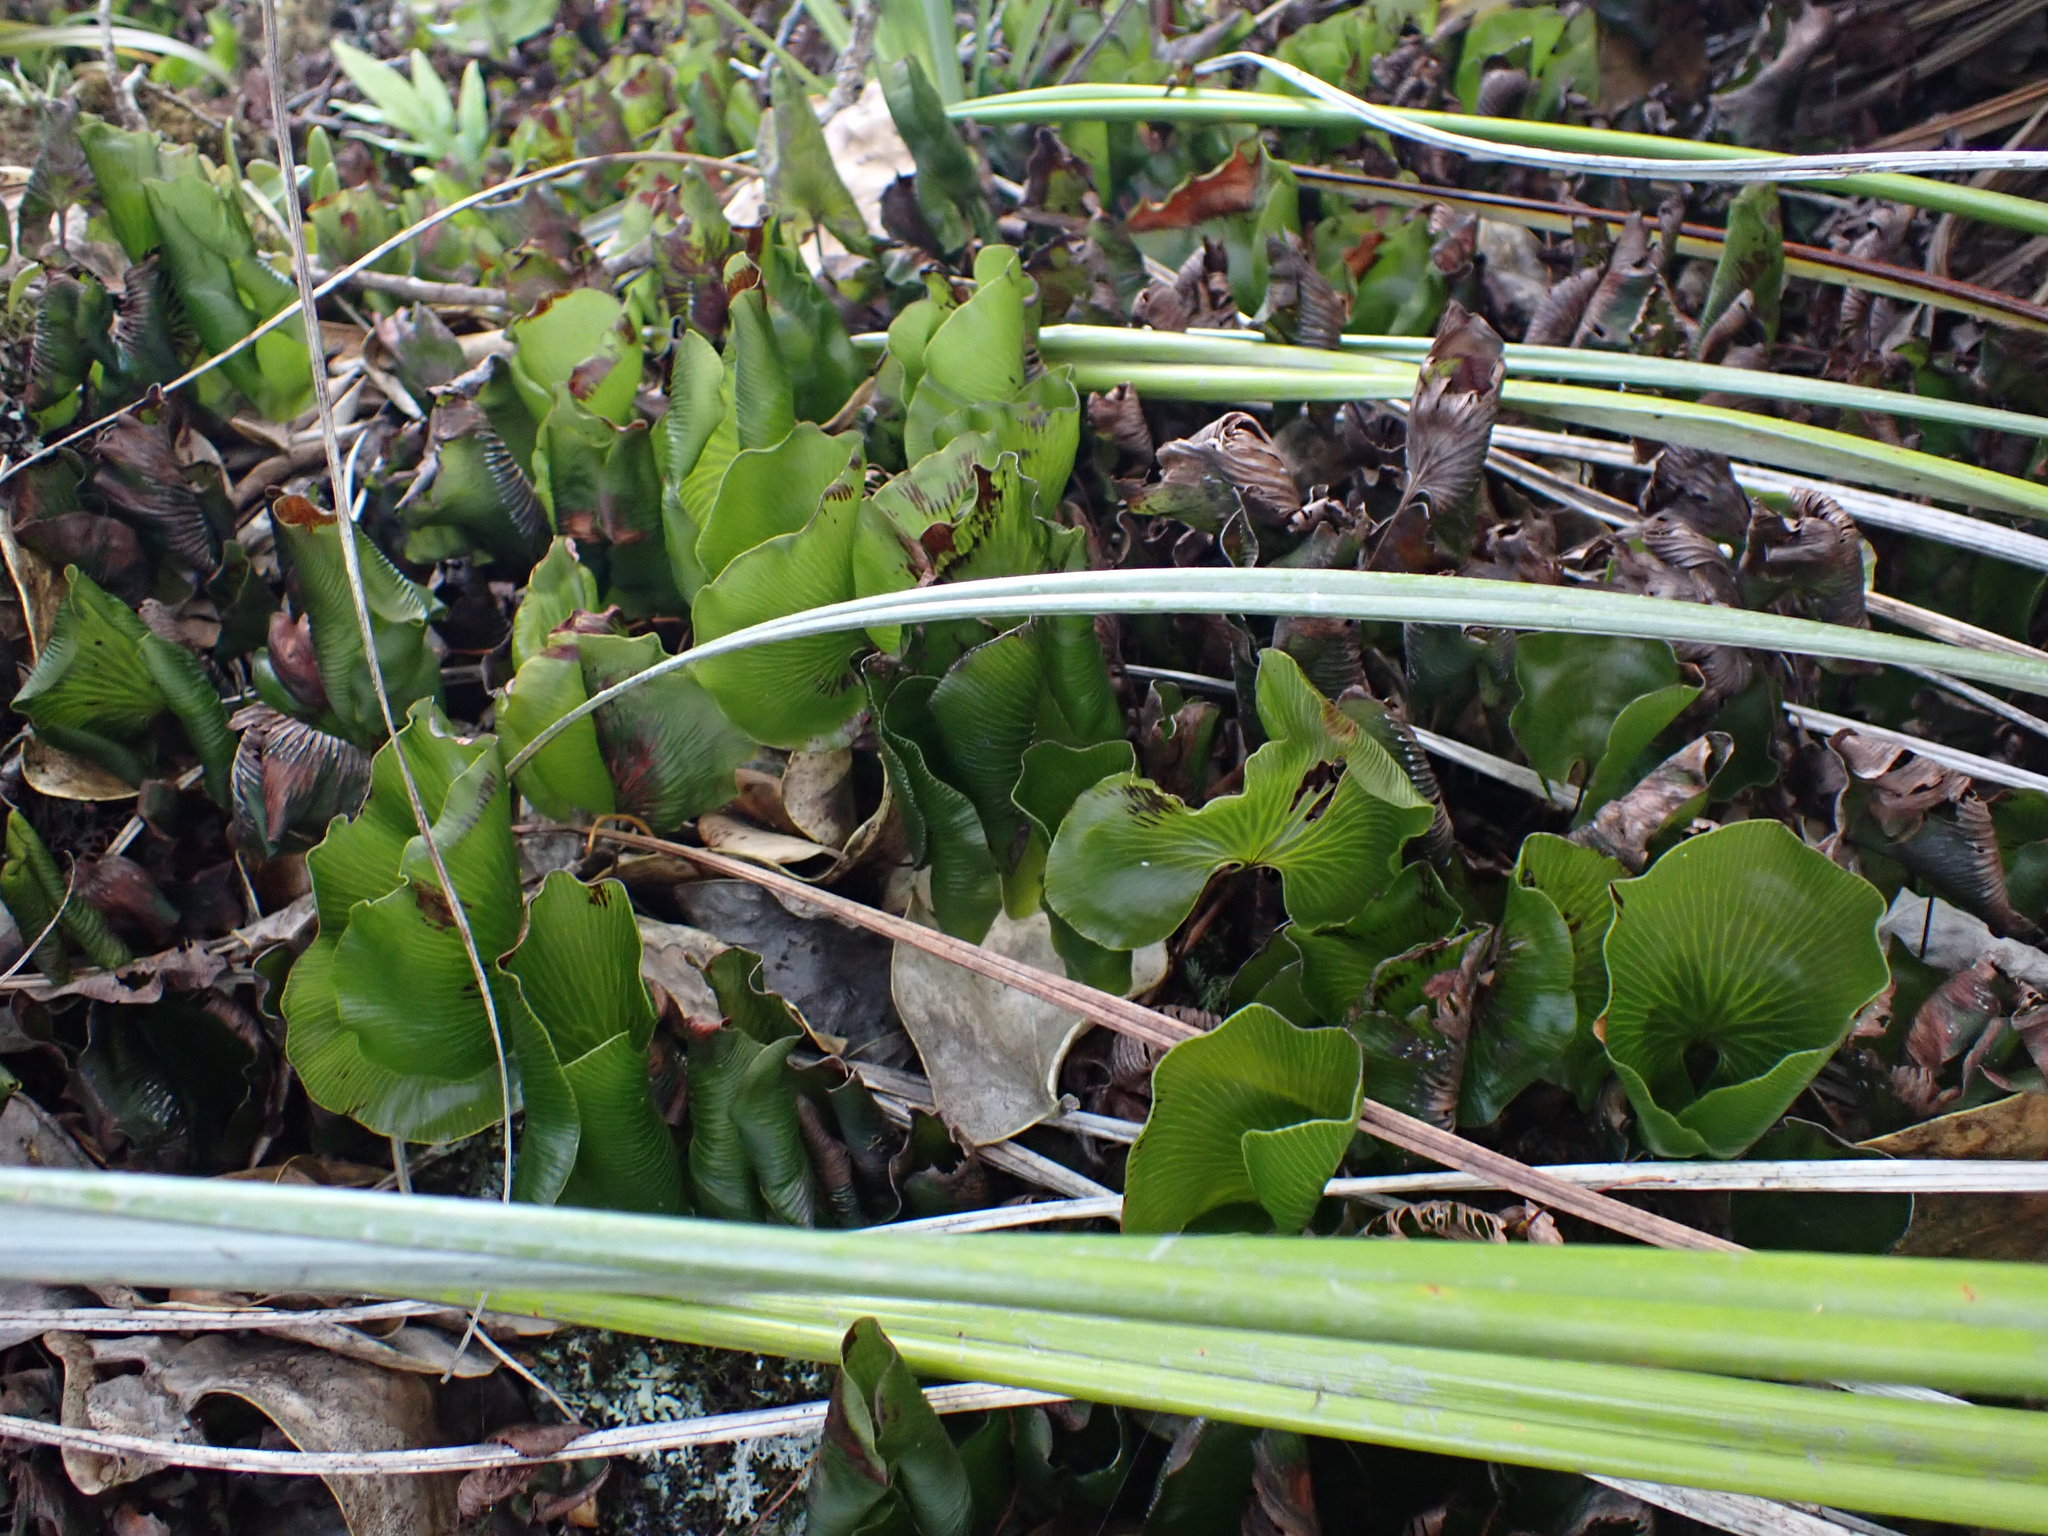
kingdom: Plantae
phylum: Tracheophyta
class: Polypodiopsida
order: Hymenophyllales
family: Hymenophyllaceae
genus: Hymenophyllum
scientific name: Hymenophyllum nephrophyllum
